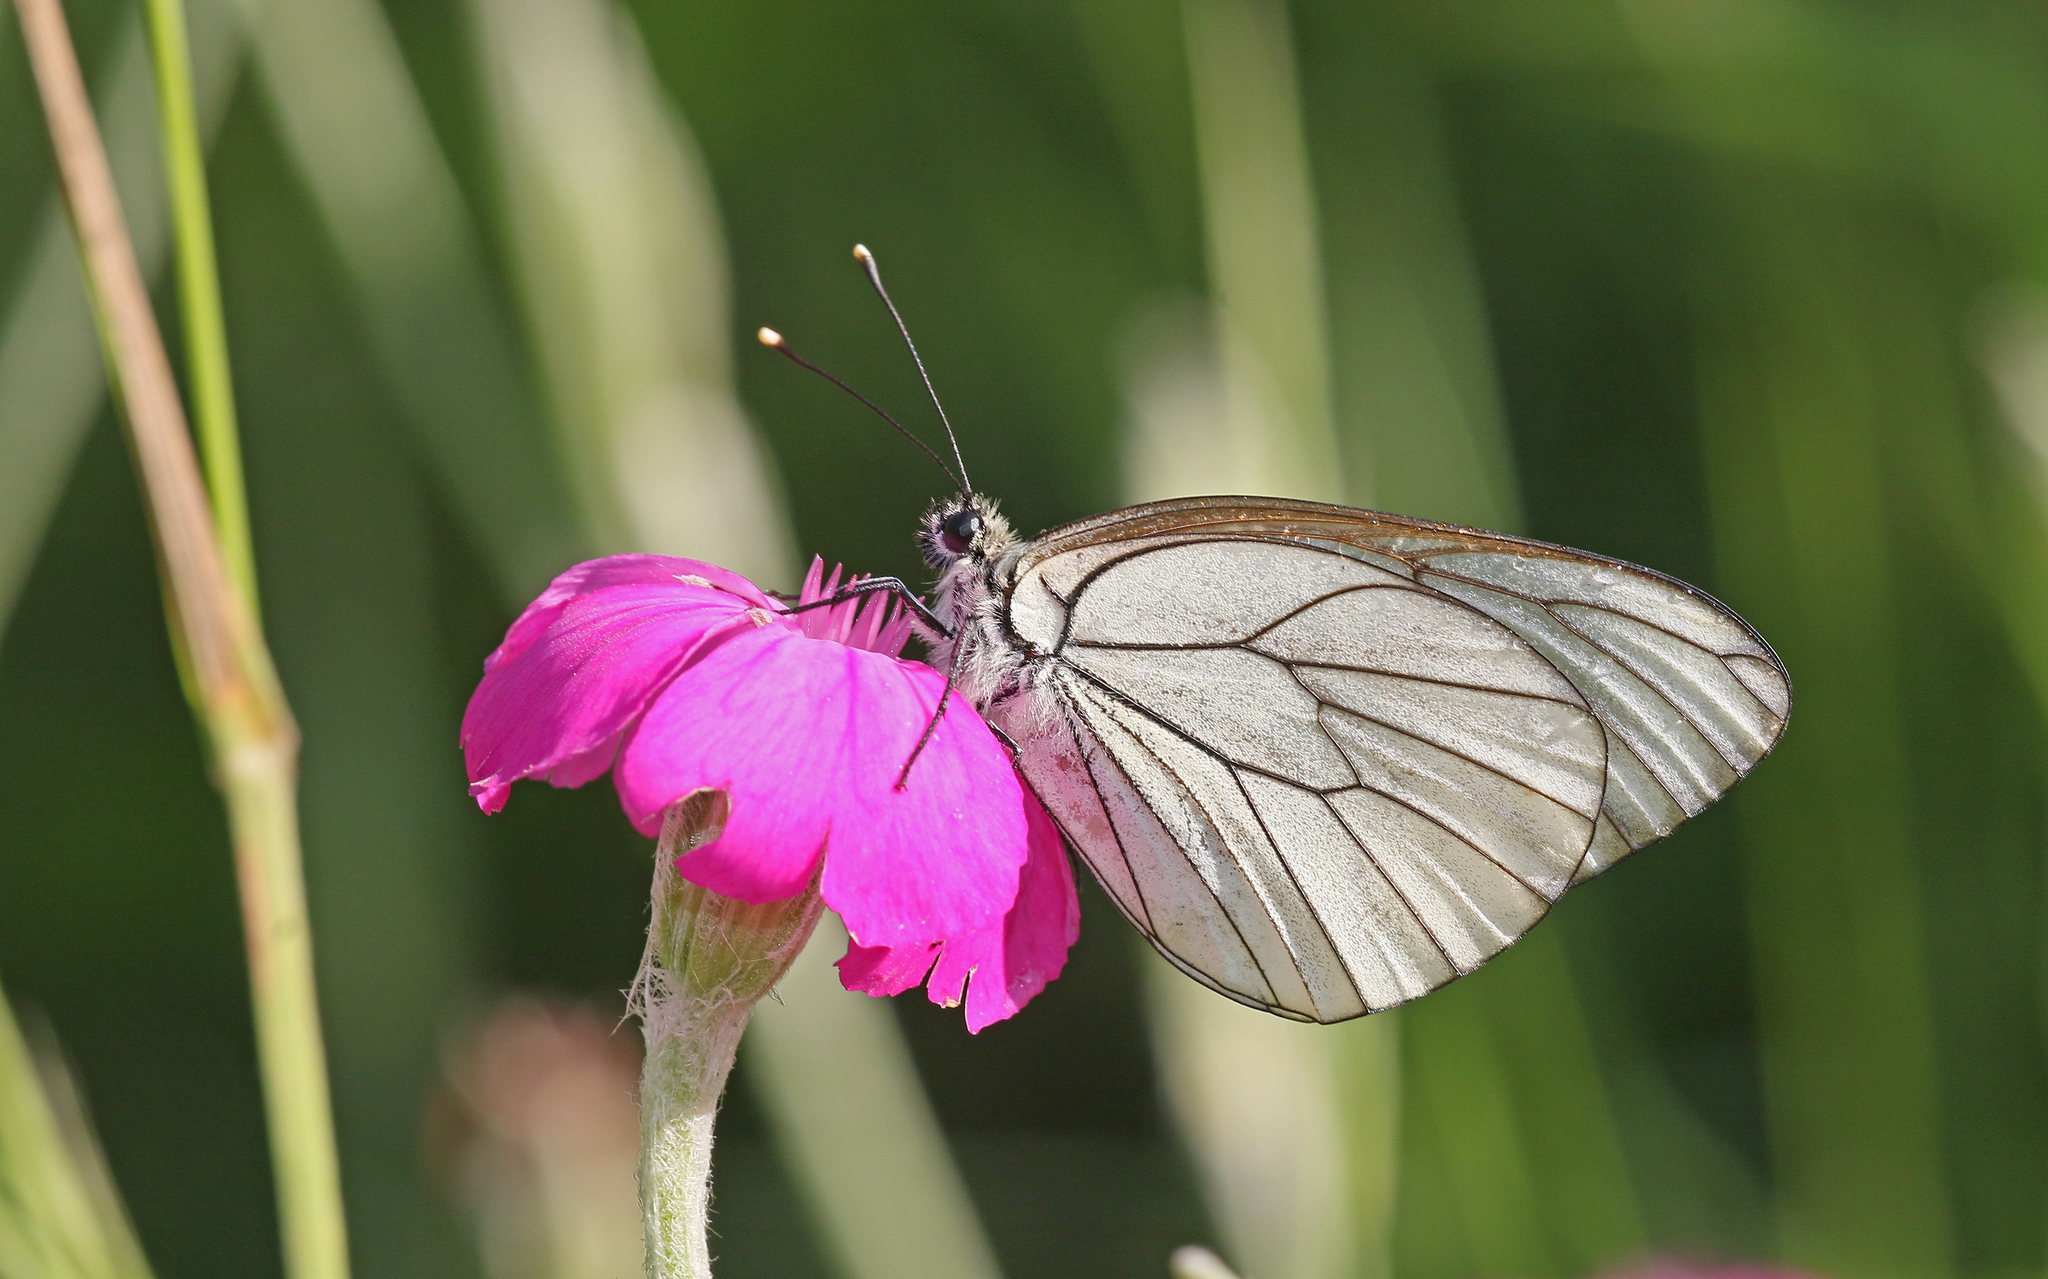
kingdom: Animalia
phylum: Arthropoda
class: Insecta
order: Lepidoptera
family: Pieridae
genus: Aporia
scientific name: Aporia crataegi
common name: Black-veined white
